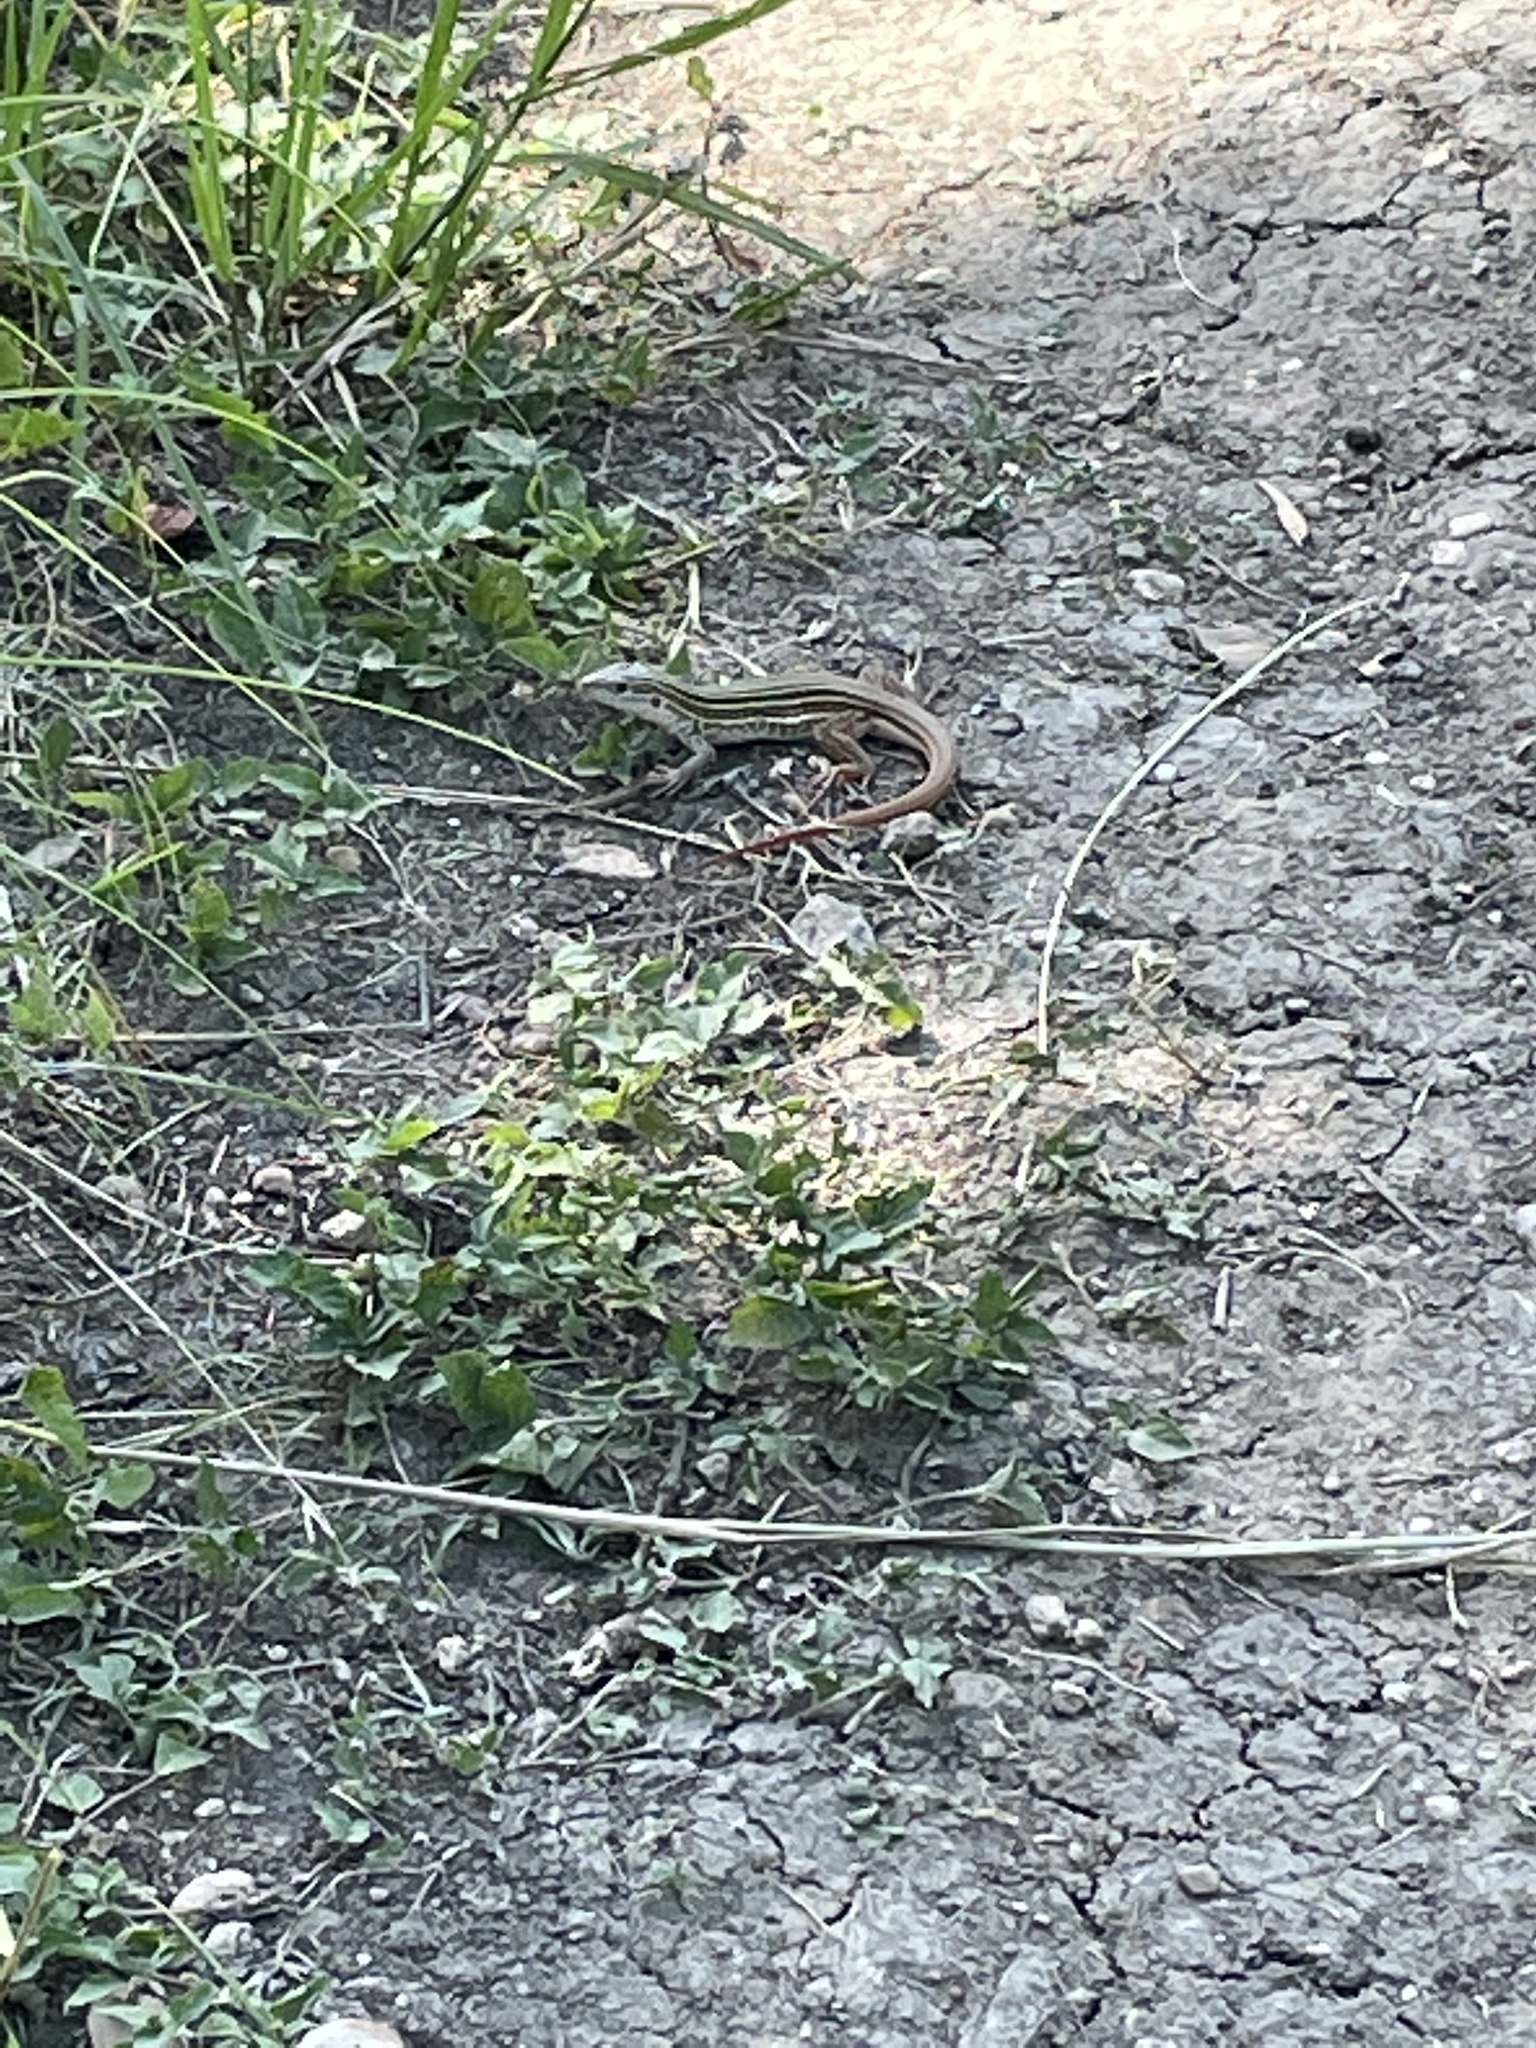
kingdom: Animalia
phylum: Chordata
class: Squamata
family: Teiidae
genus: Aspidoscelis
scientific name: Aspidoscelis gularis
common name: Eastern spotted whiptail
